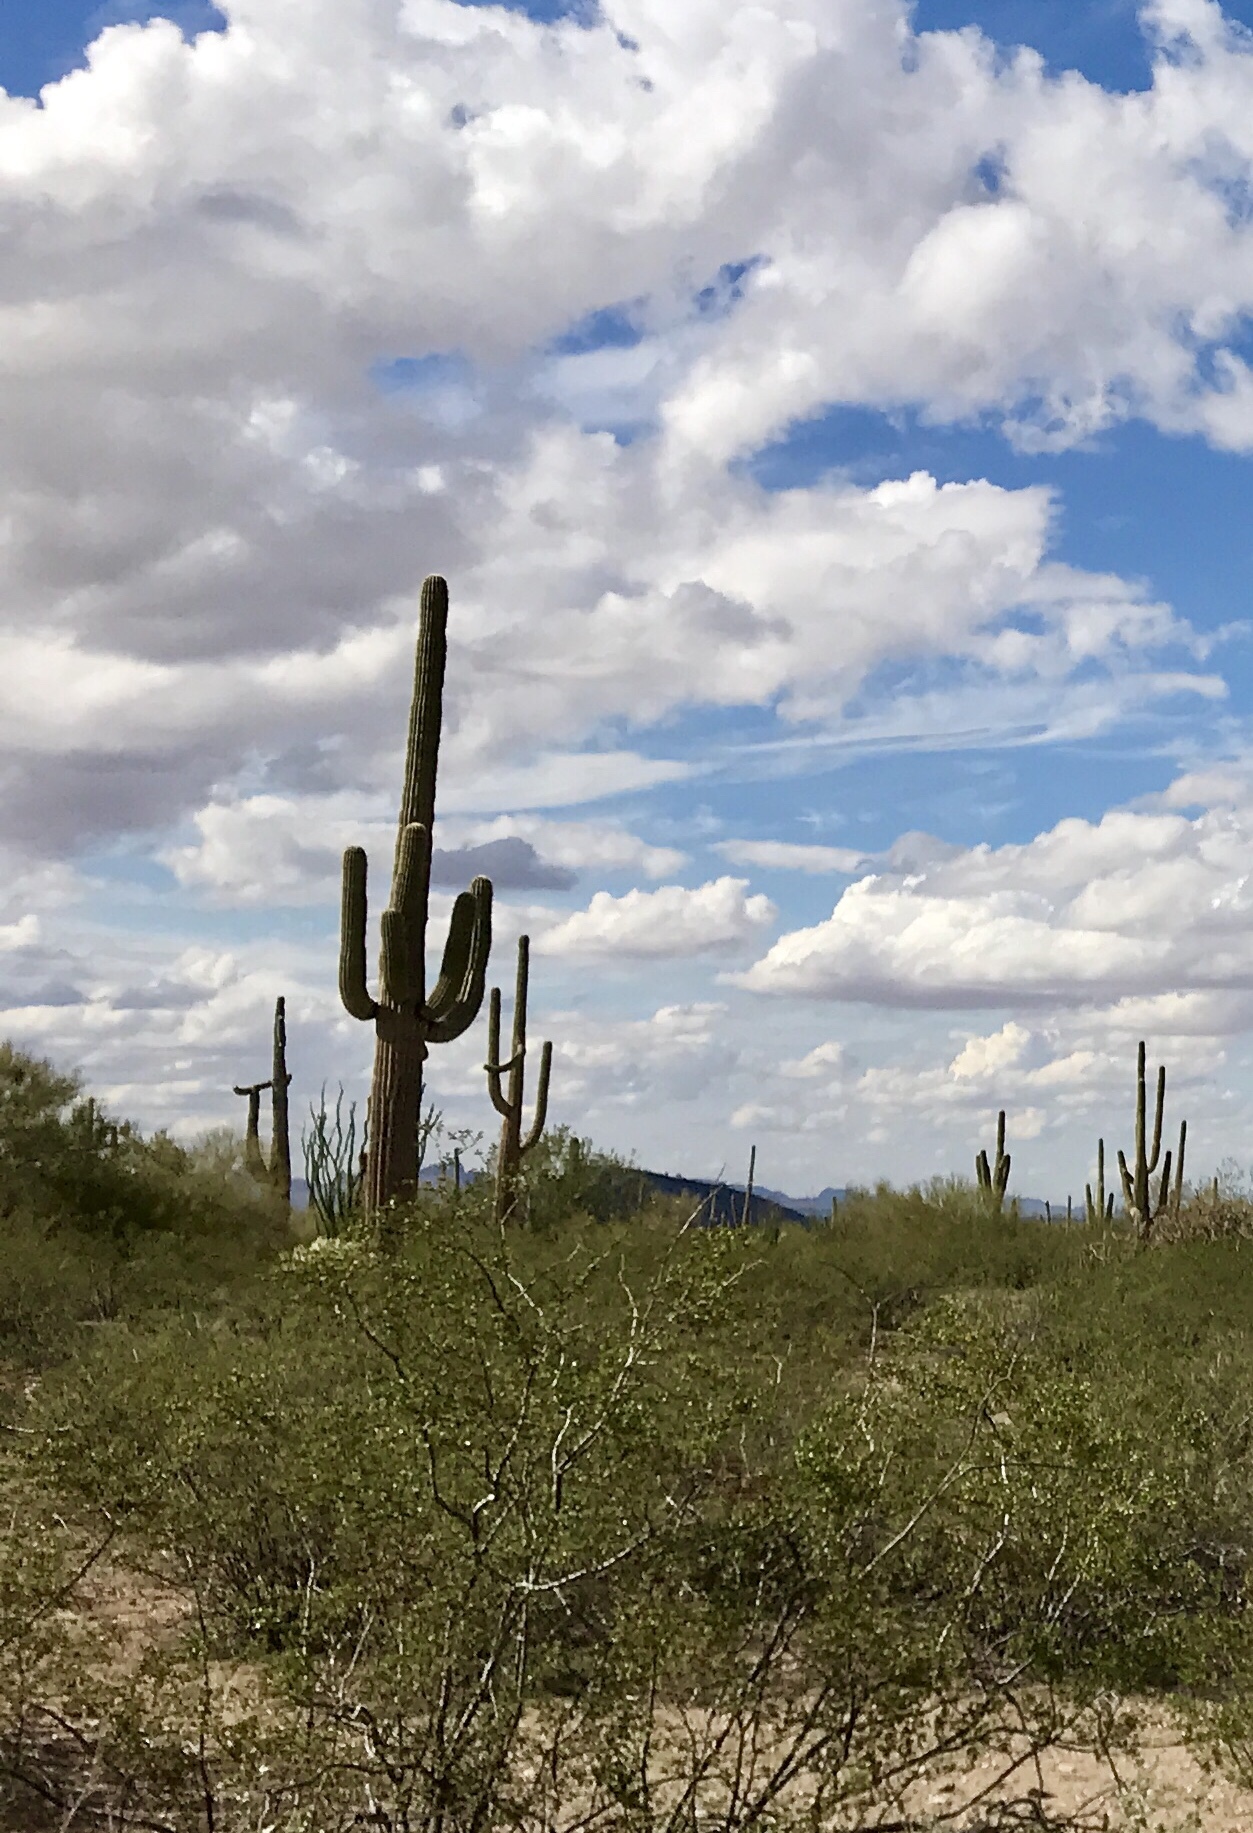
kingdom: Plantae
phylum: Tracheophyta
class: Magnoliopsida
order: Caryophyllales
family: Cactaceae
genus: Carnegiea
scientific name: Carnegiea gigantea
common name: Saguaro
